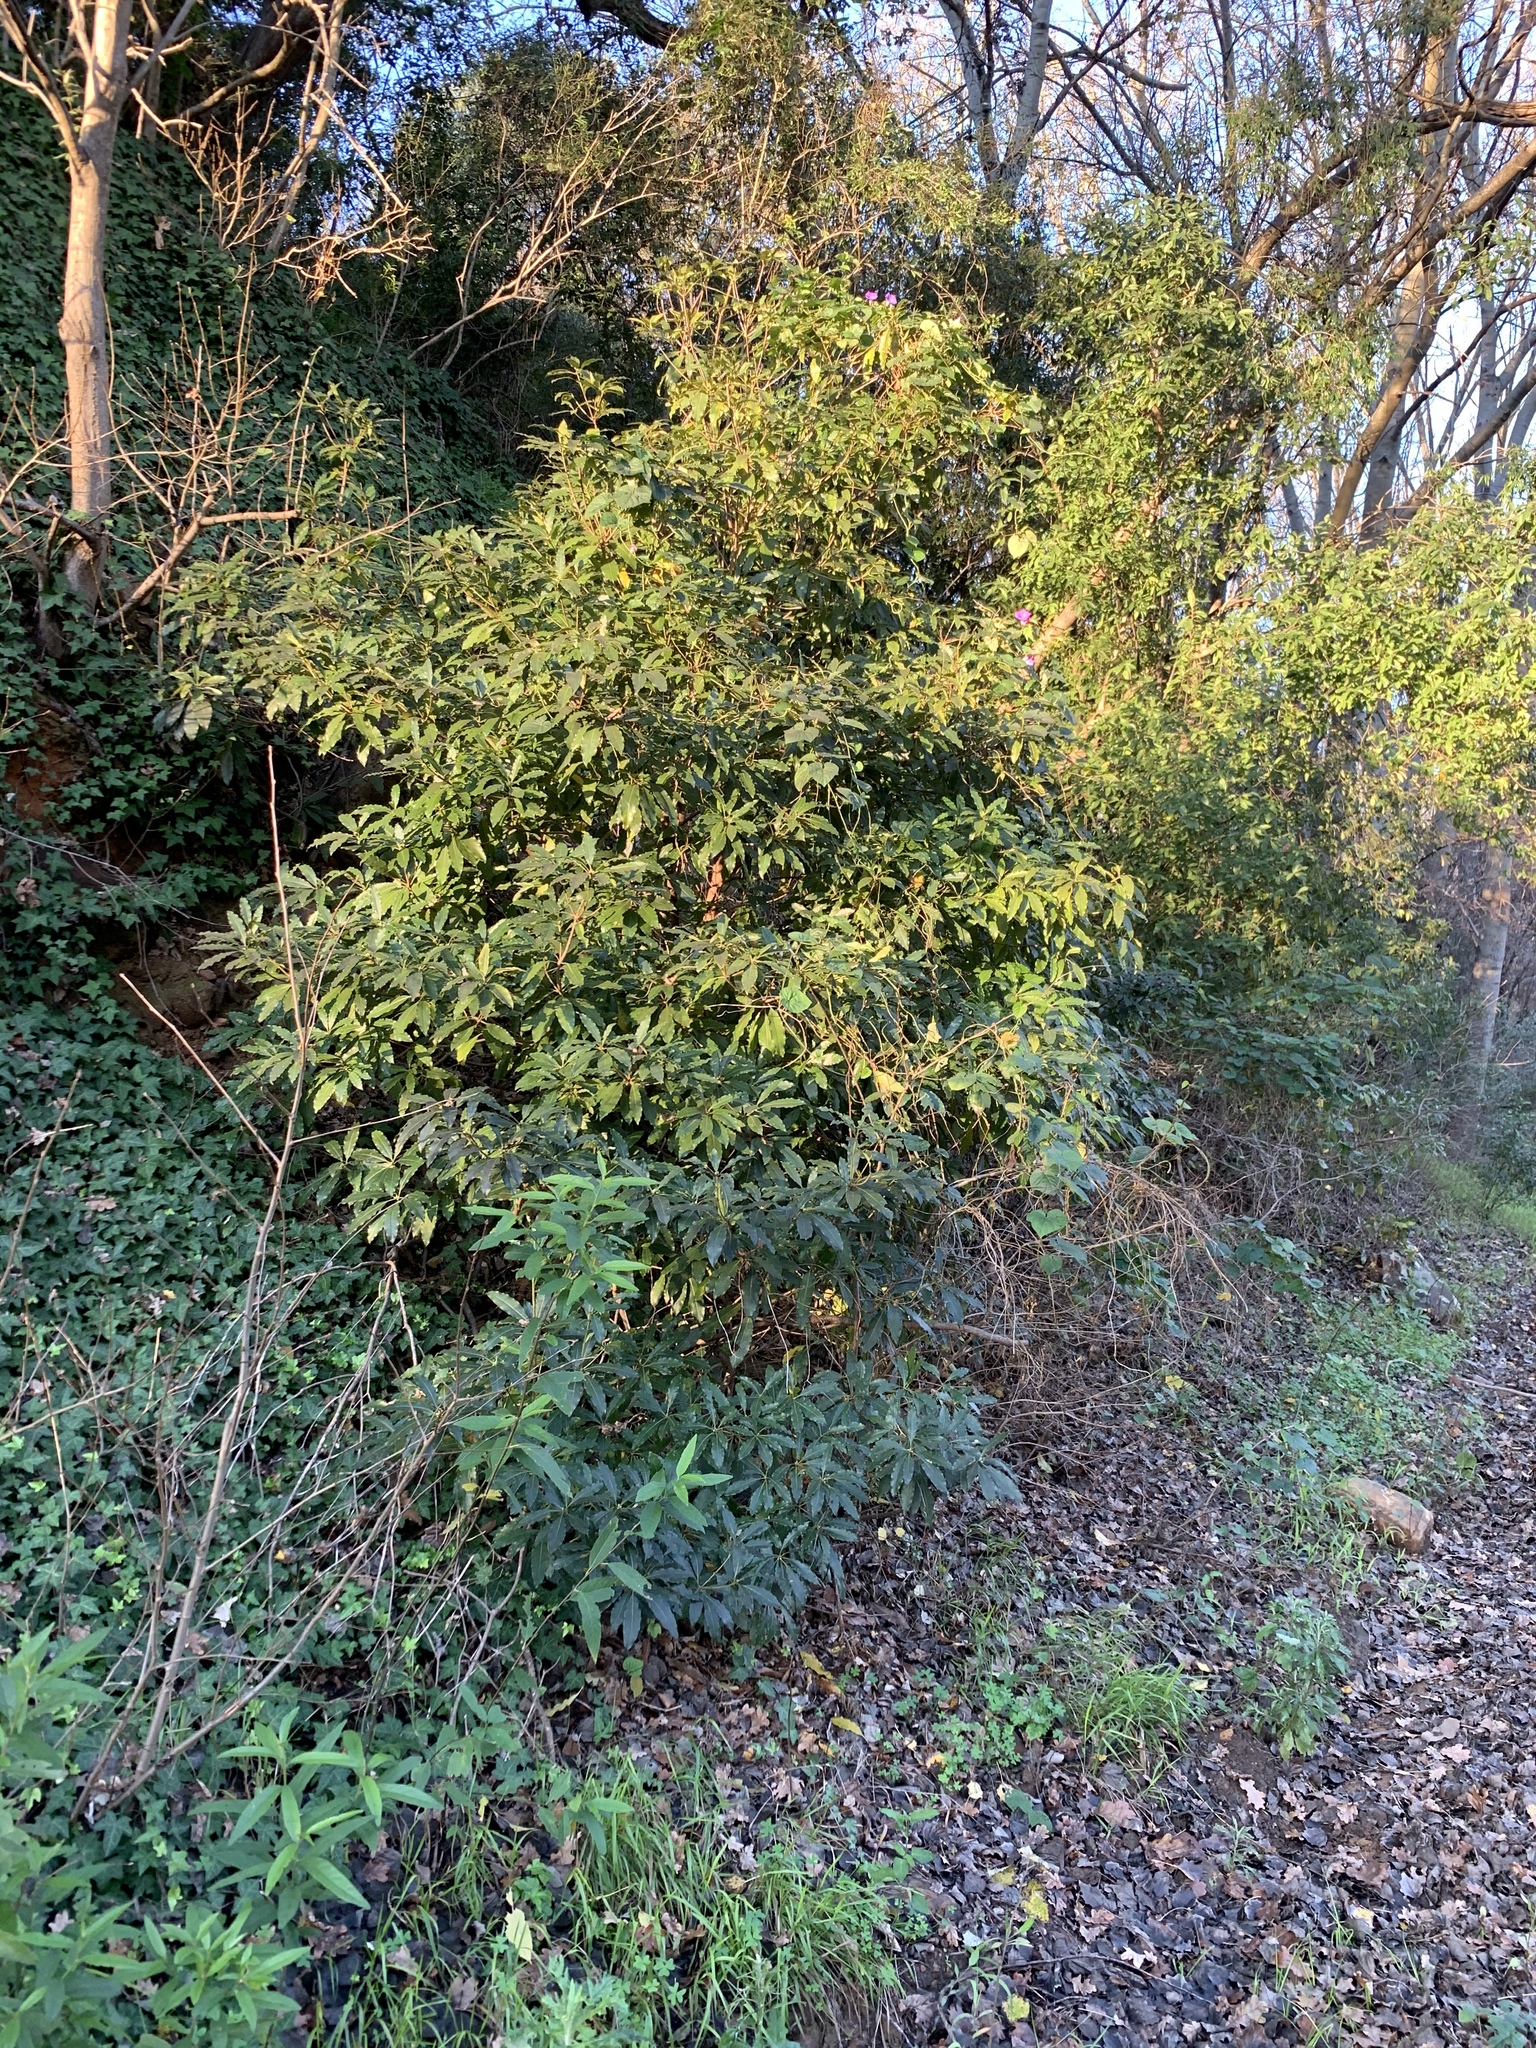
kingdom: Plantae
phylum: Tracheophyta
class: Magnoliopsida
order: Apiales
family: Pittosporaceae
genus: Pittosporum
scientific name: Pittosporum undulatum
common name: Australian cheesewood
